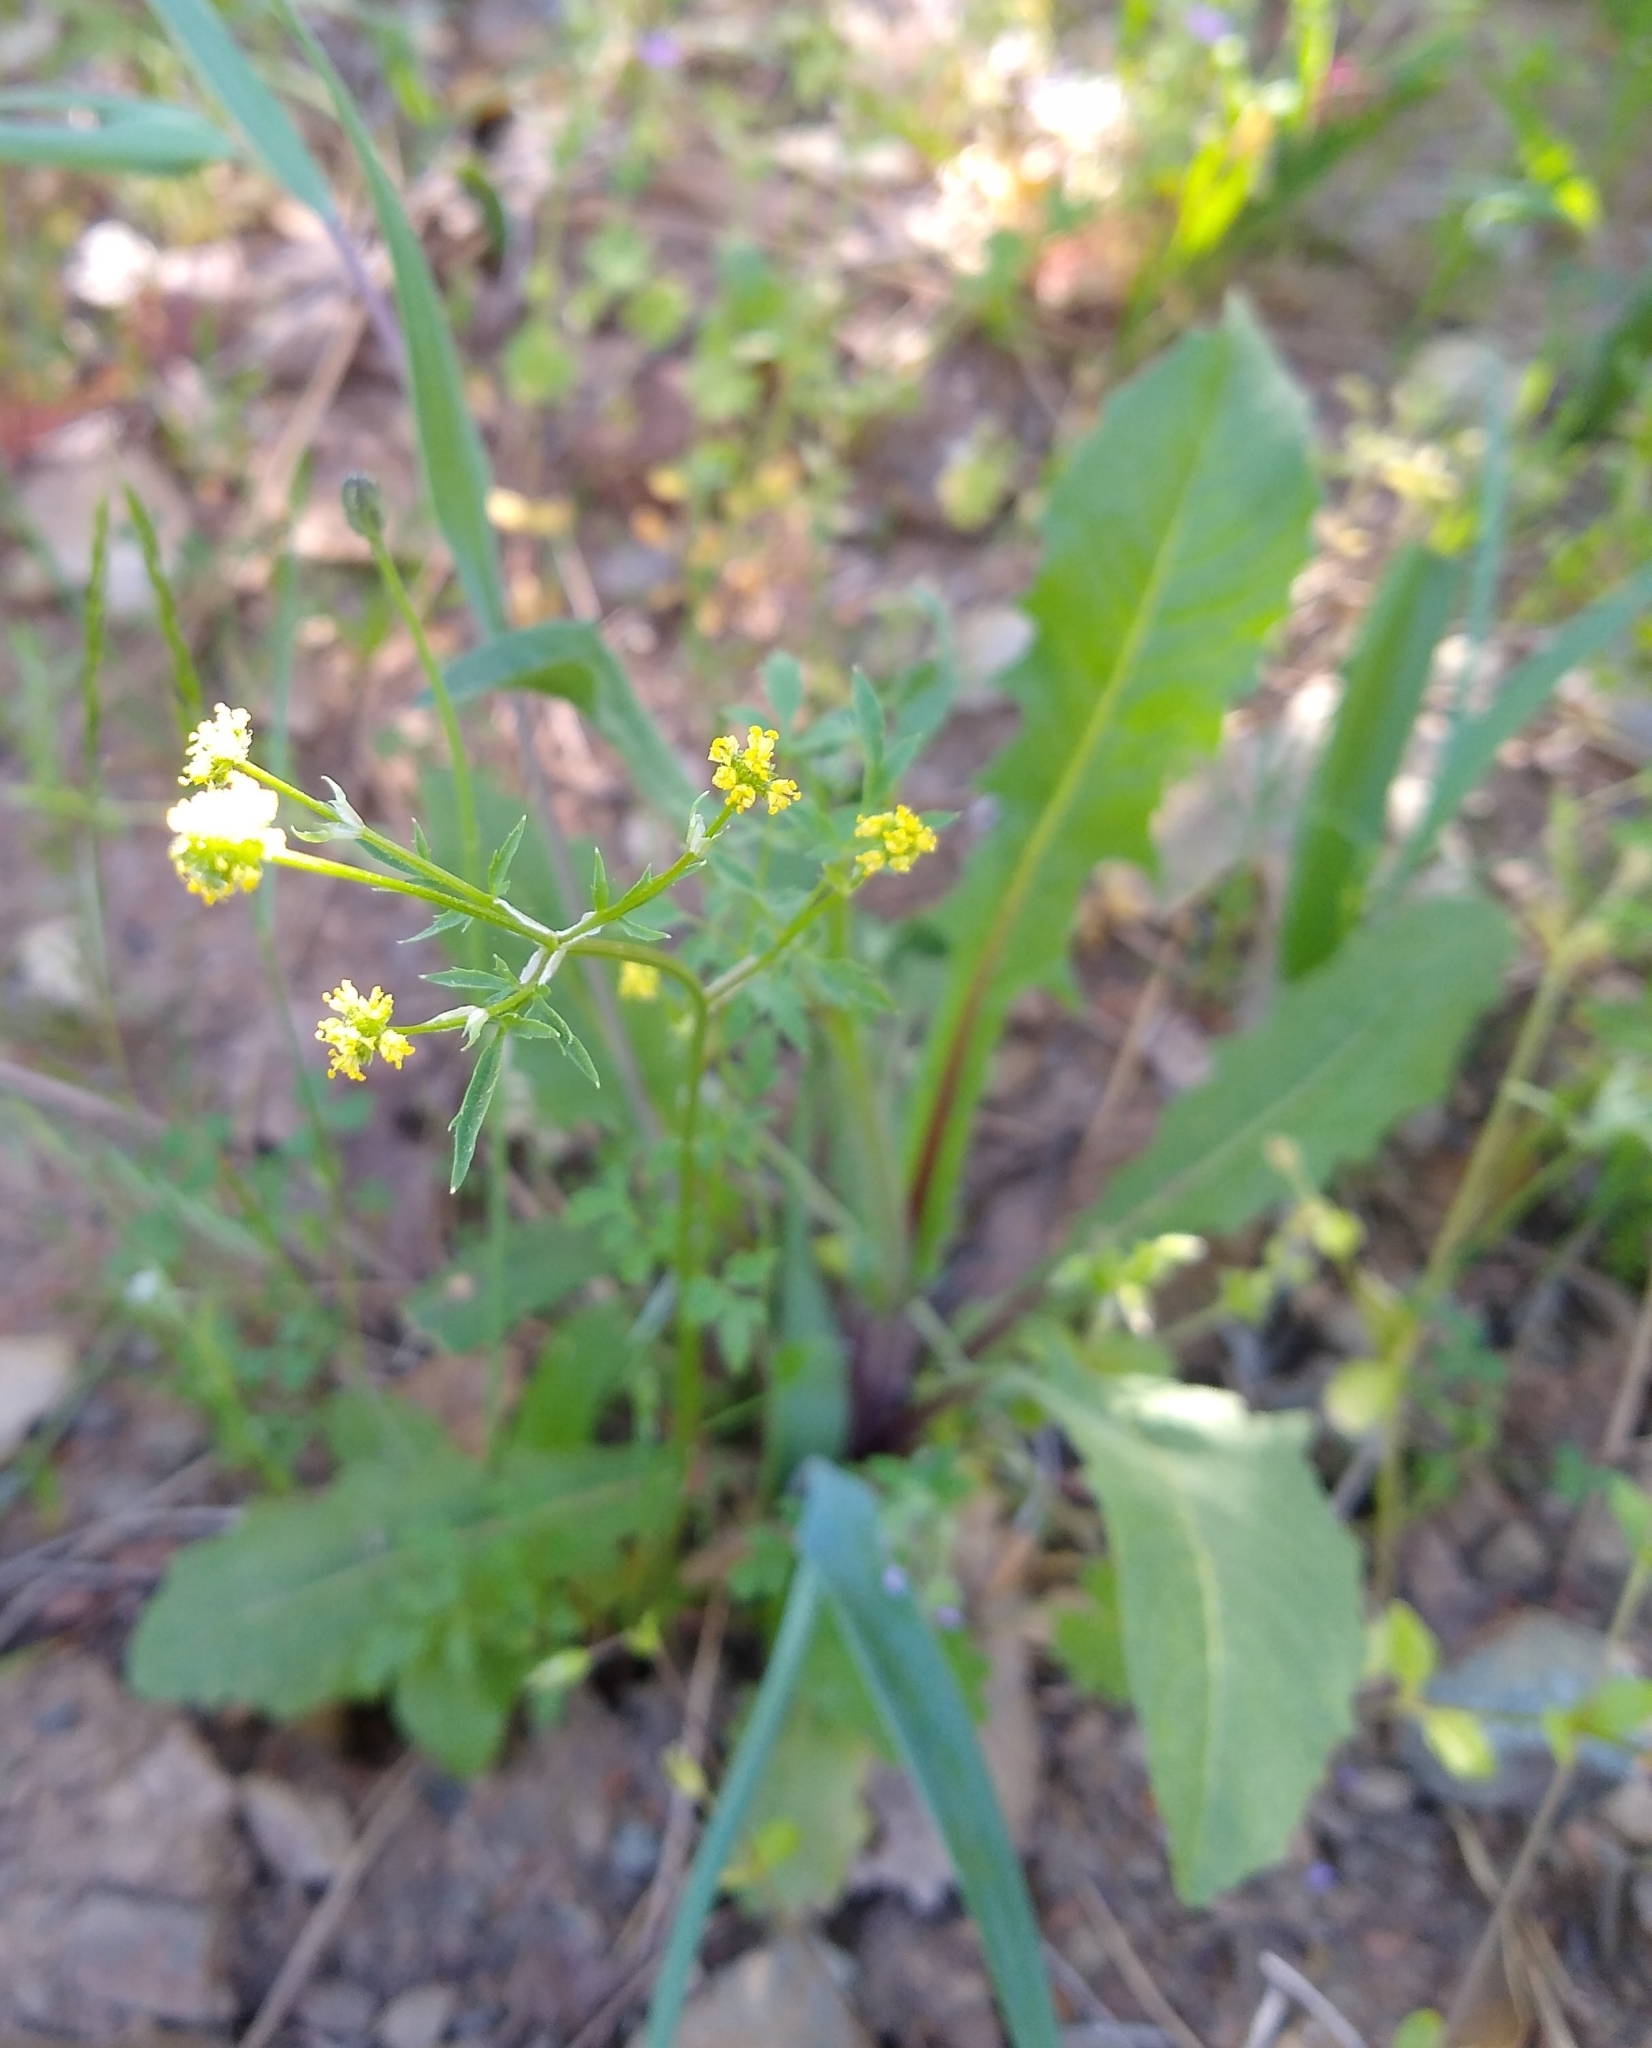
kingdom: Plantae
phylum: Tracheophyta
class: Magnoliopsida
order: Apiales
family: Apiaceae
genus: Sanicula
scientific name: Sanicula bipinnata
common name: Poison sanicle
